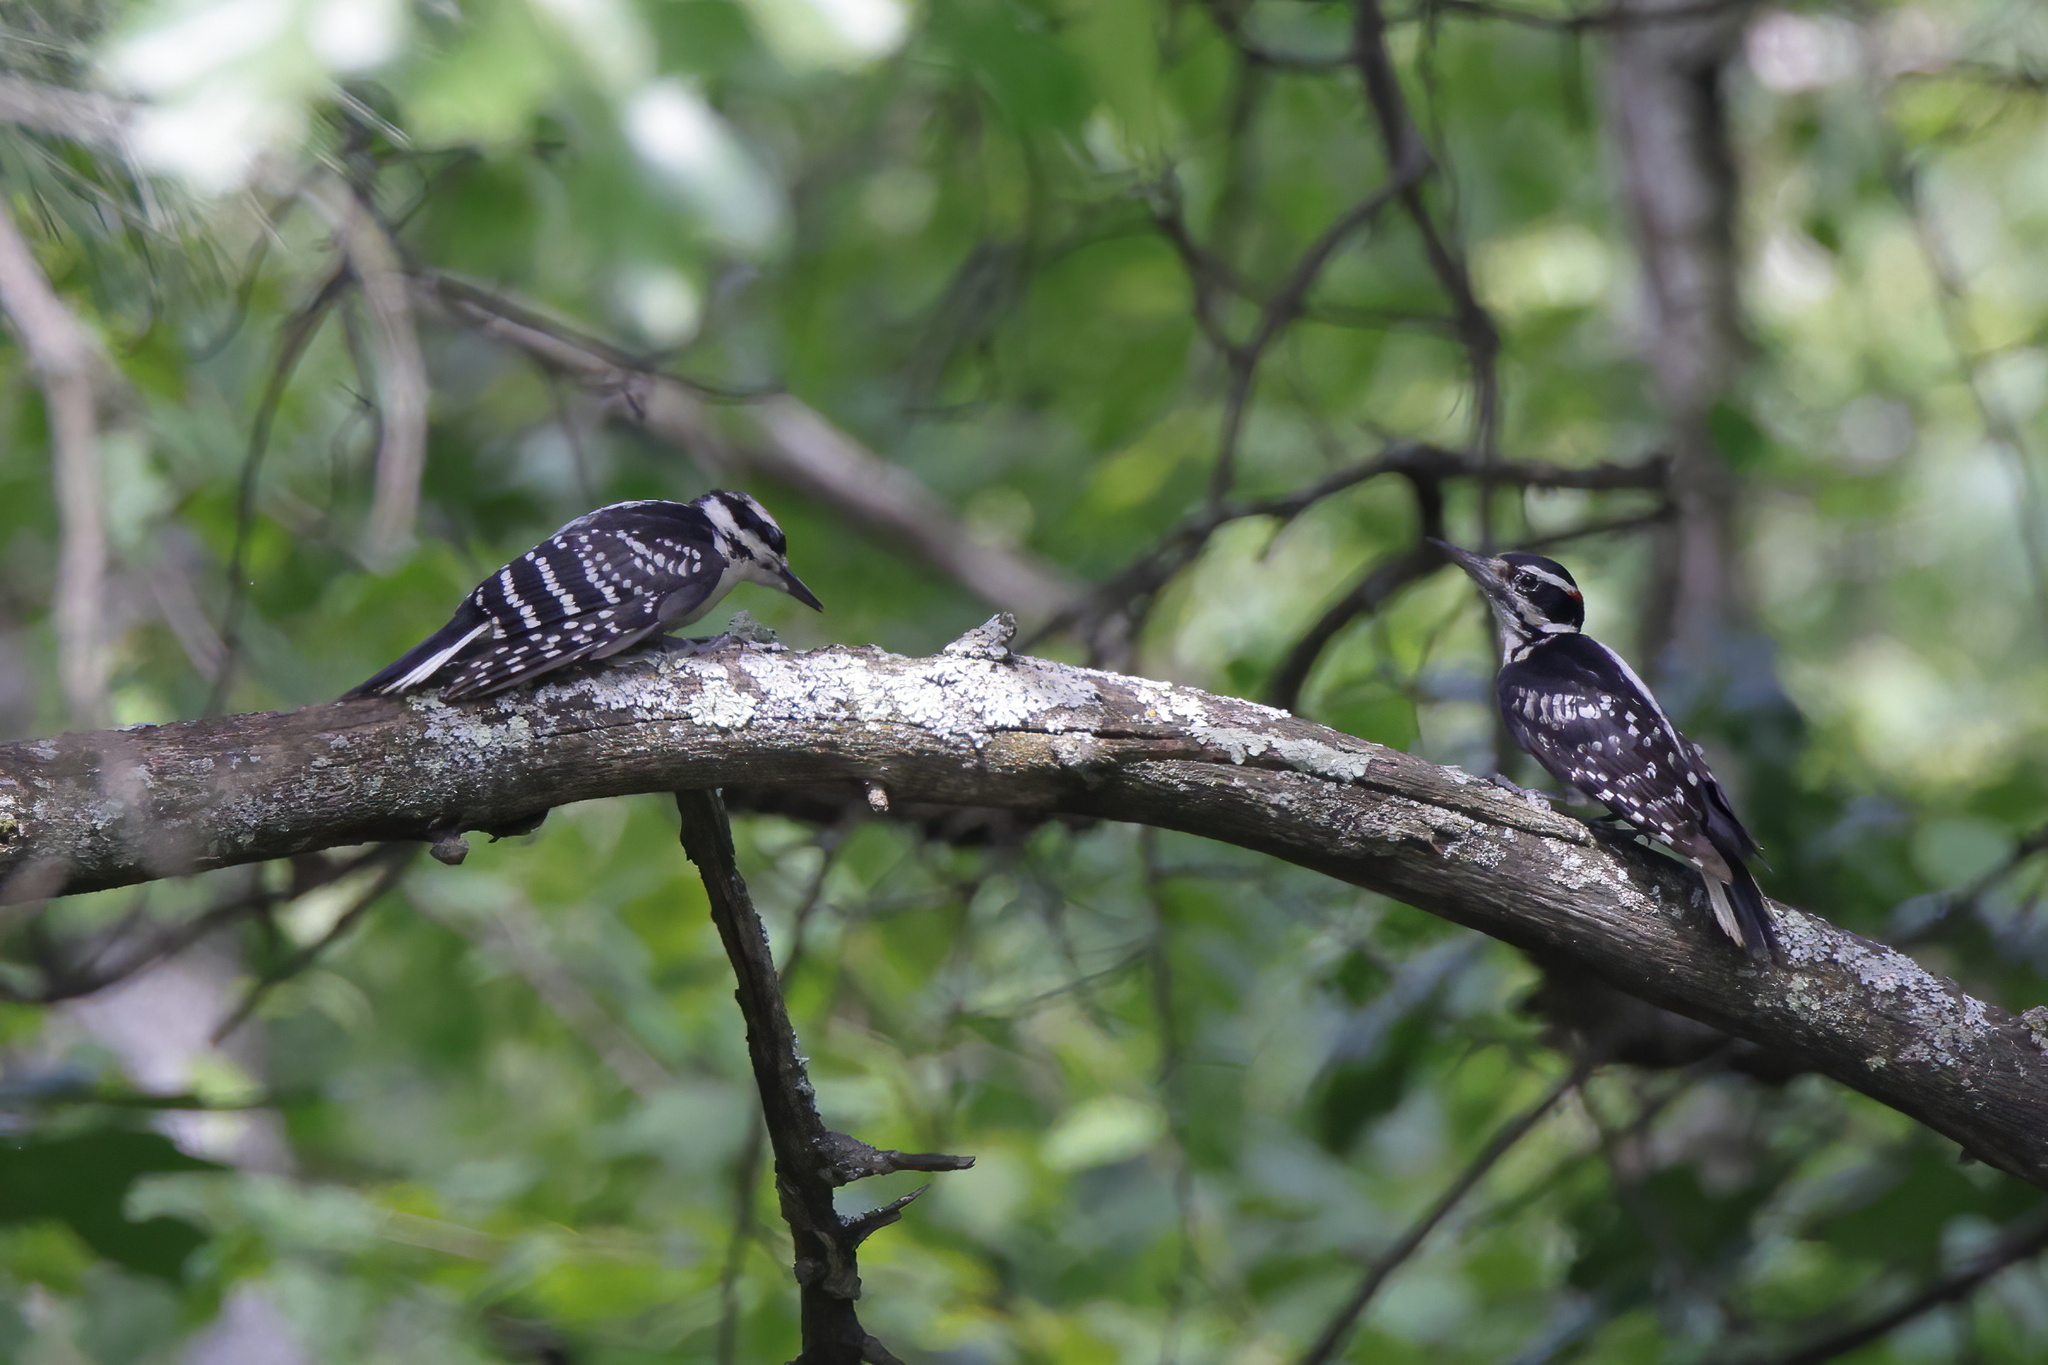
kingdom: Animalia
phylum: Chordata
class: Aves
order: Piciformes
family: Picidae
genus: Leuconotopicus
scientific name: Leuconotopicus villosus
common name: Hairy woodpecker
